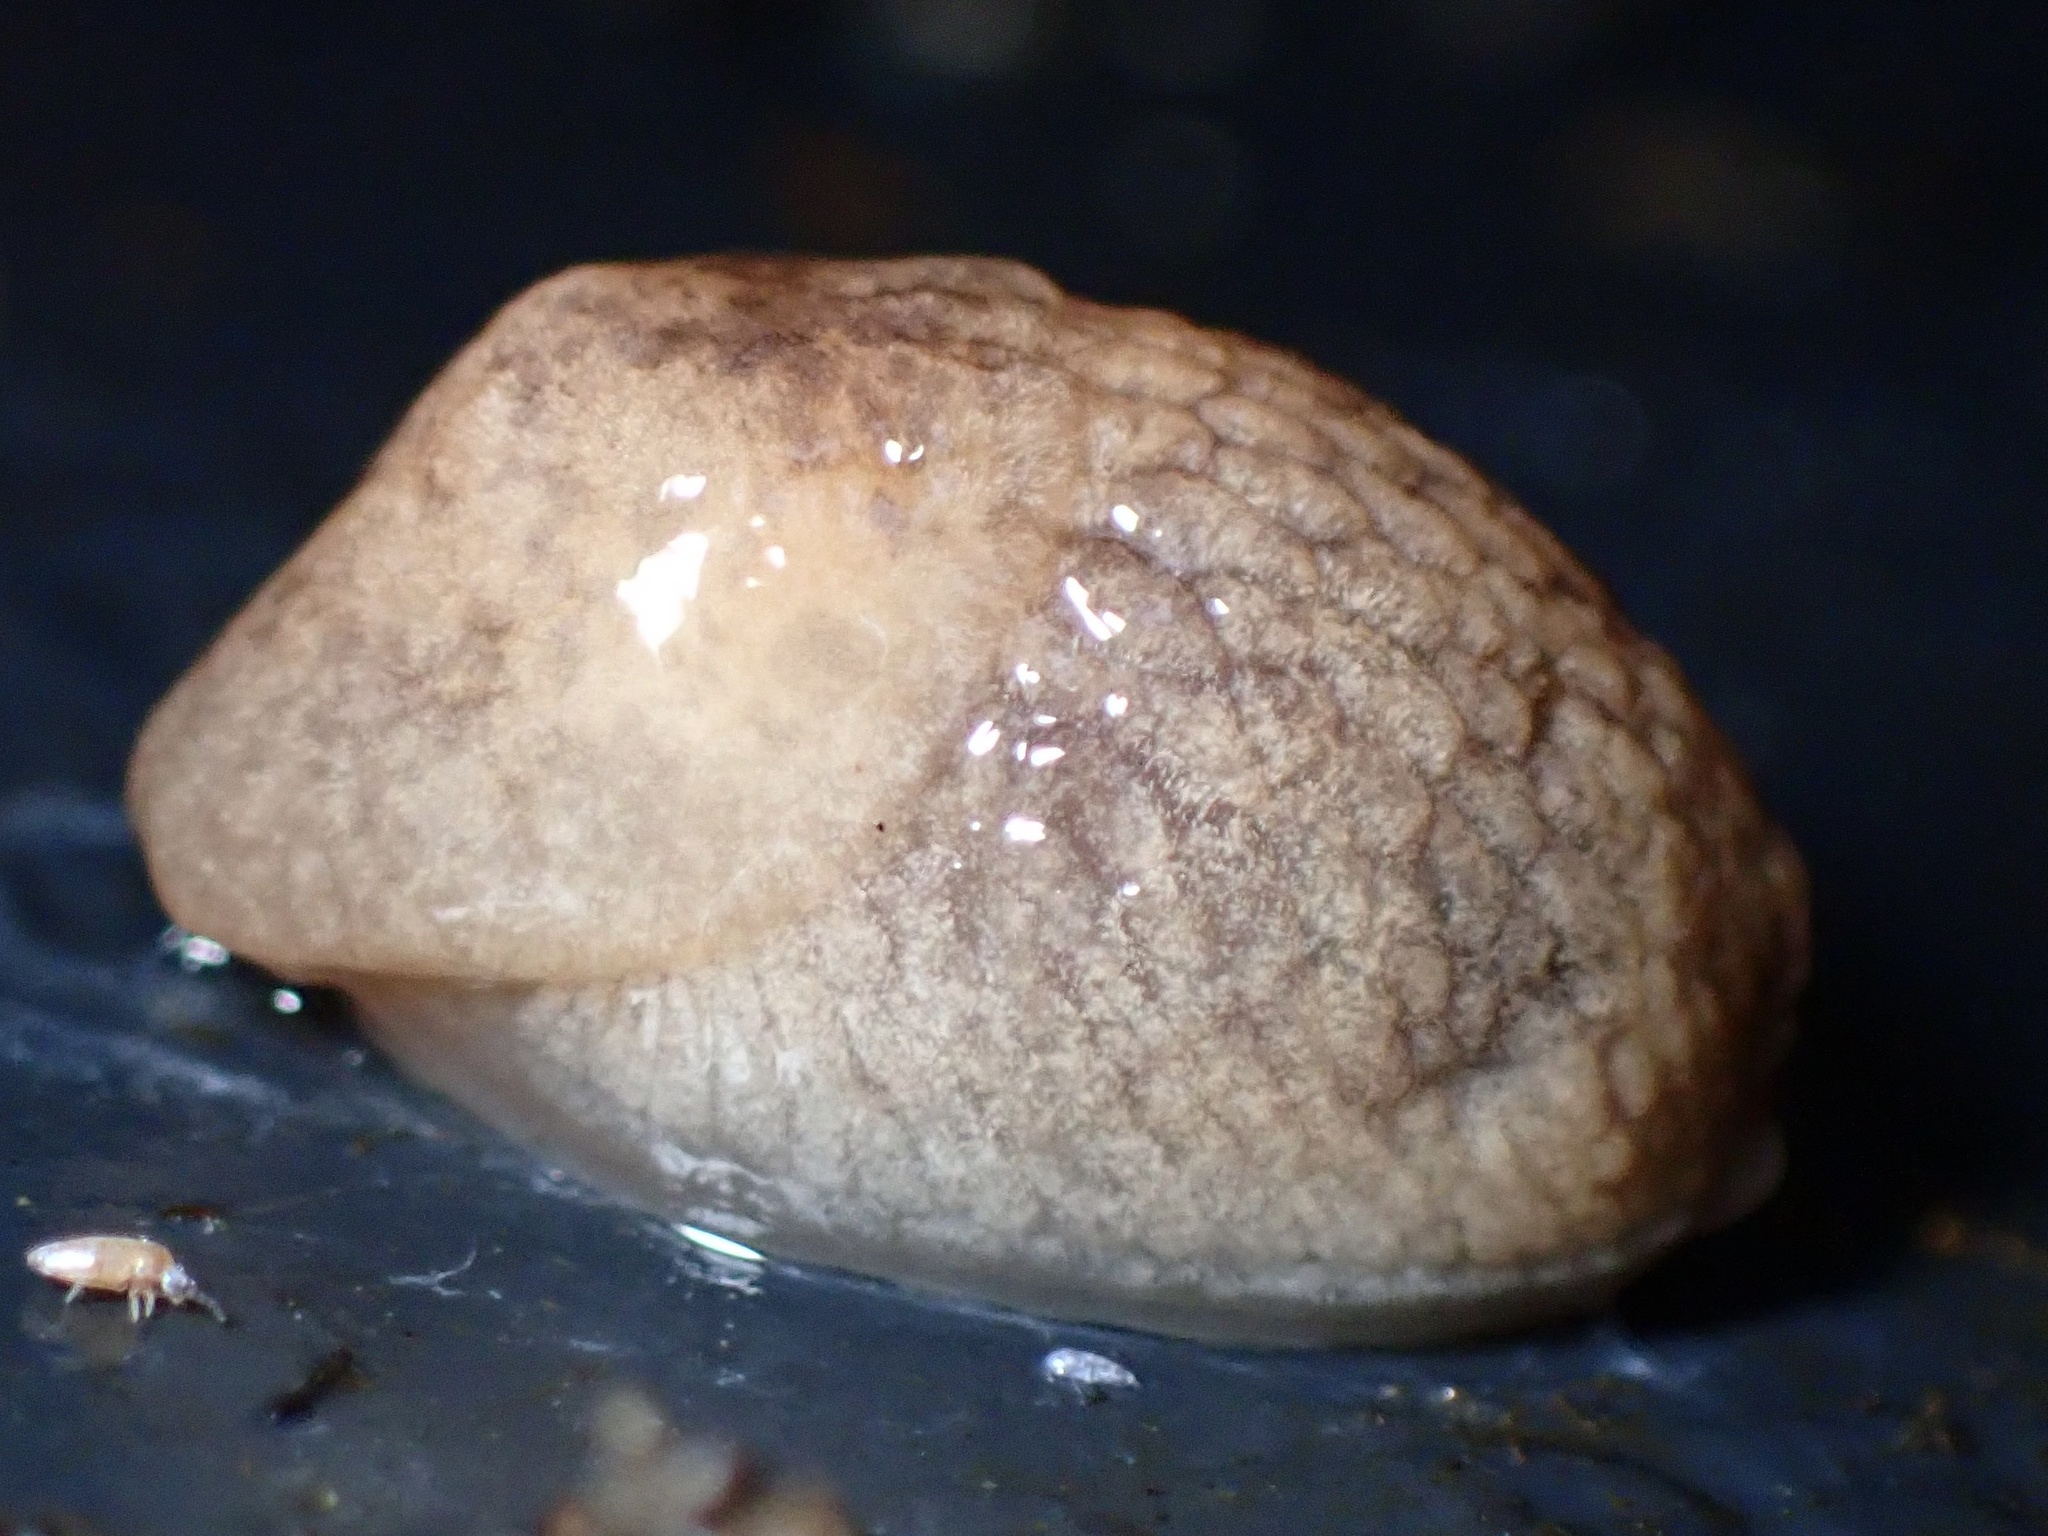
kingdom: Animalia
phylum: Mollusca
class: Gastropoda
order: Stylommatophora
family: Agriolimacidae
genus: Deroceras
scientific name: Deroceras reticulatum
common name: Gray field slug
